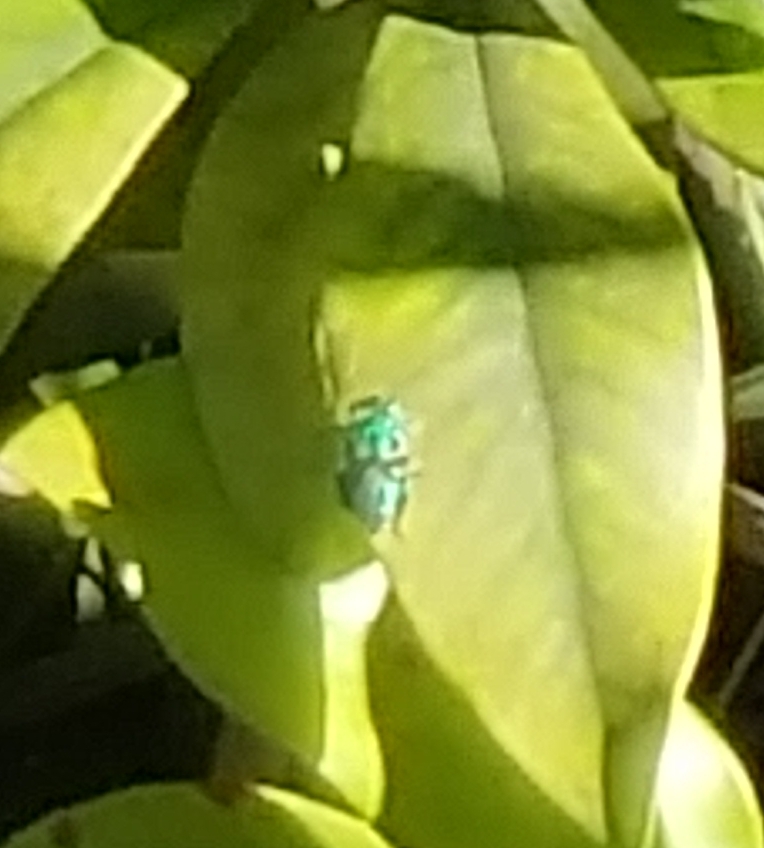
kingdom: Animalia
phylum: Arthropoda
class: Insecta
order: Hymenoptera
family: Apidae
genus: Euglossa
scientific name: Euglossa dilemma
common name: Green orchid bee
